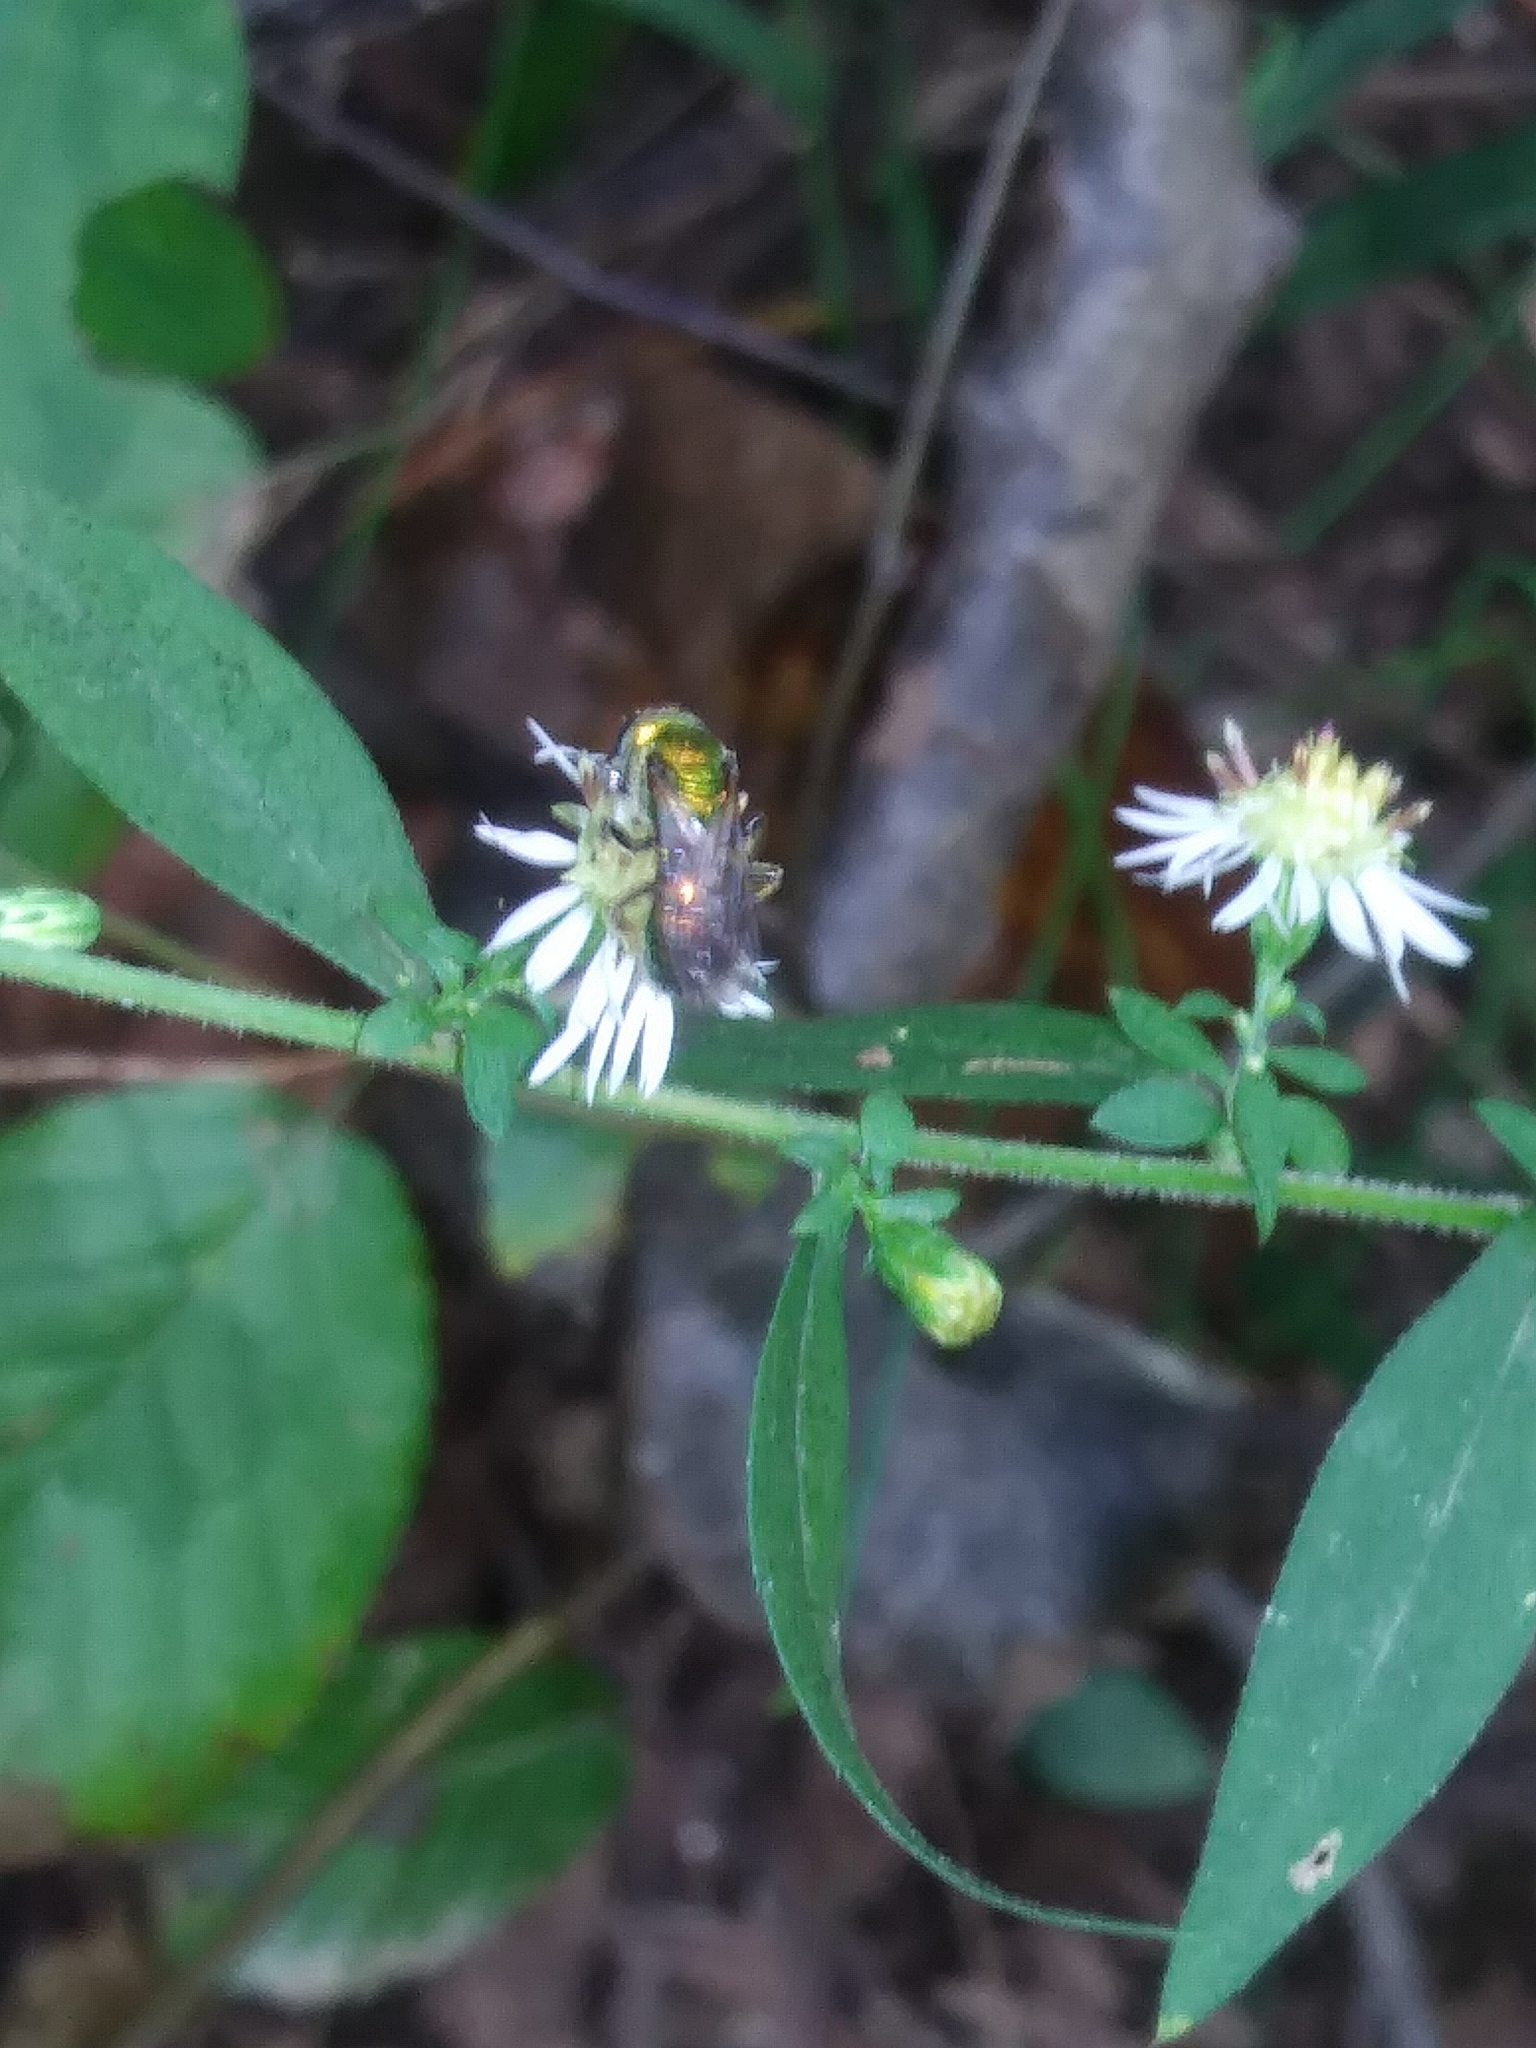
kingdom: Animalia
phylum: Arthropoda
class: Insecta
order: Hymenoptera
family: Halictidae
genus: Augochlora
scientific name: Augochlora pura
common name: Pure green sweat bee
